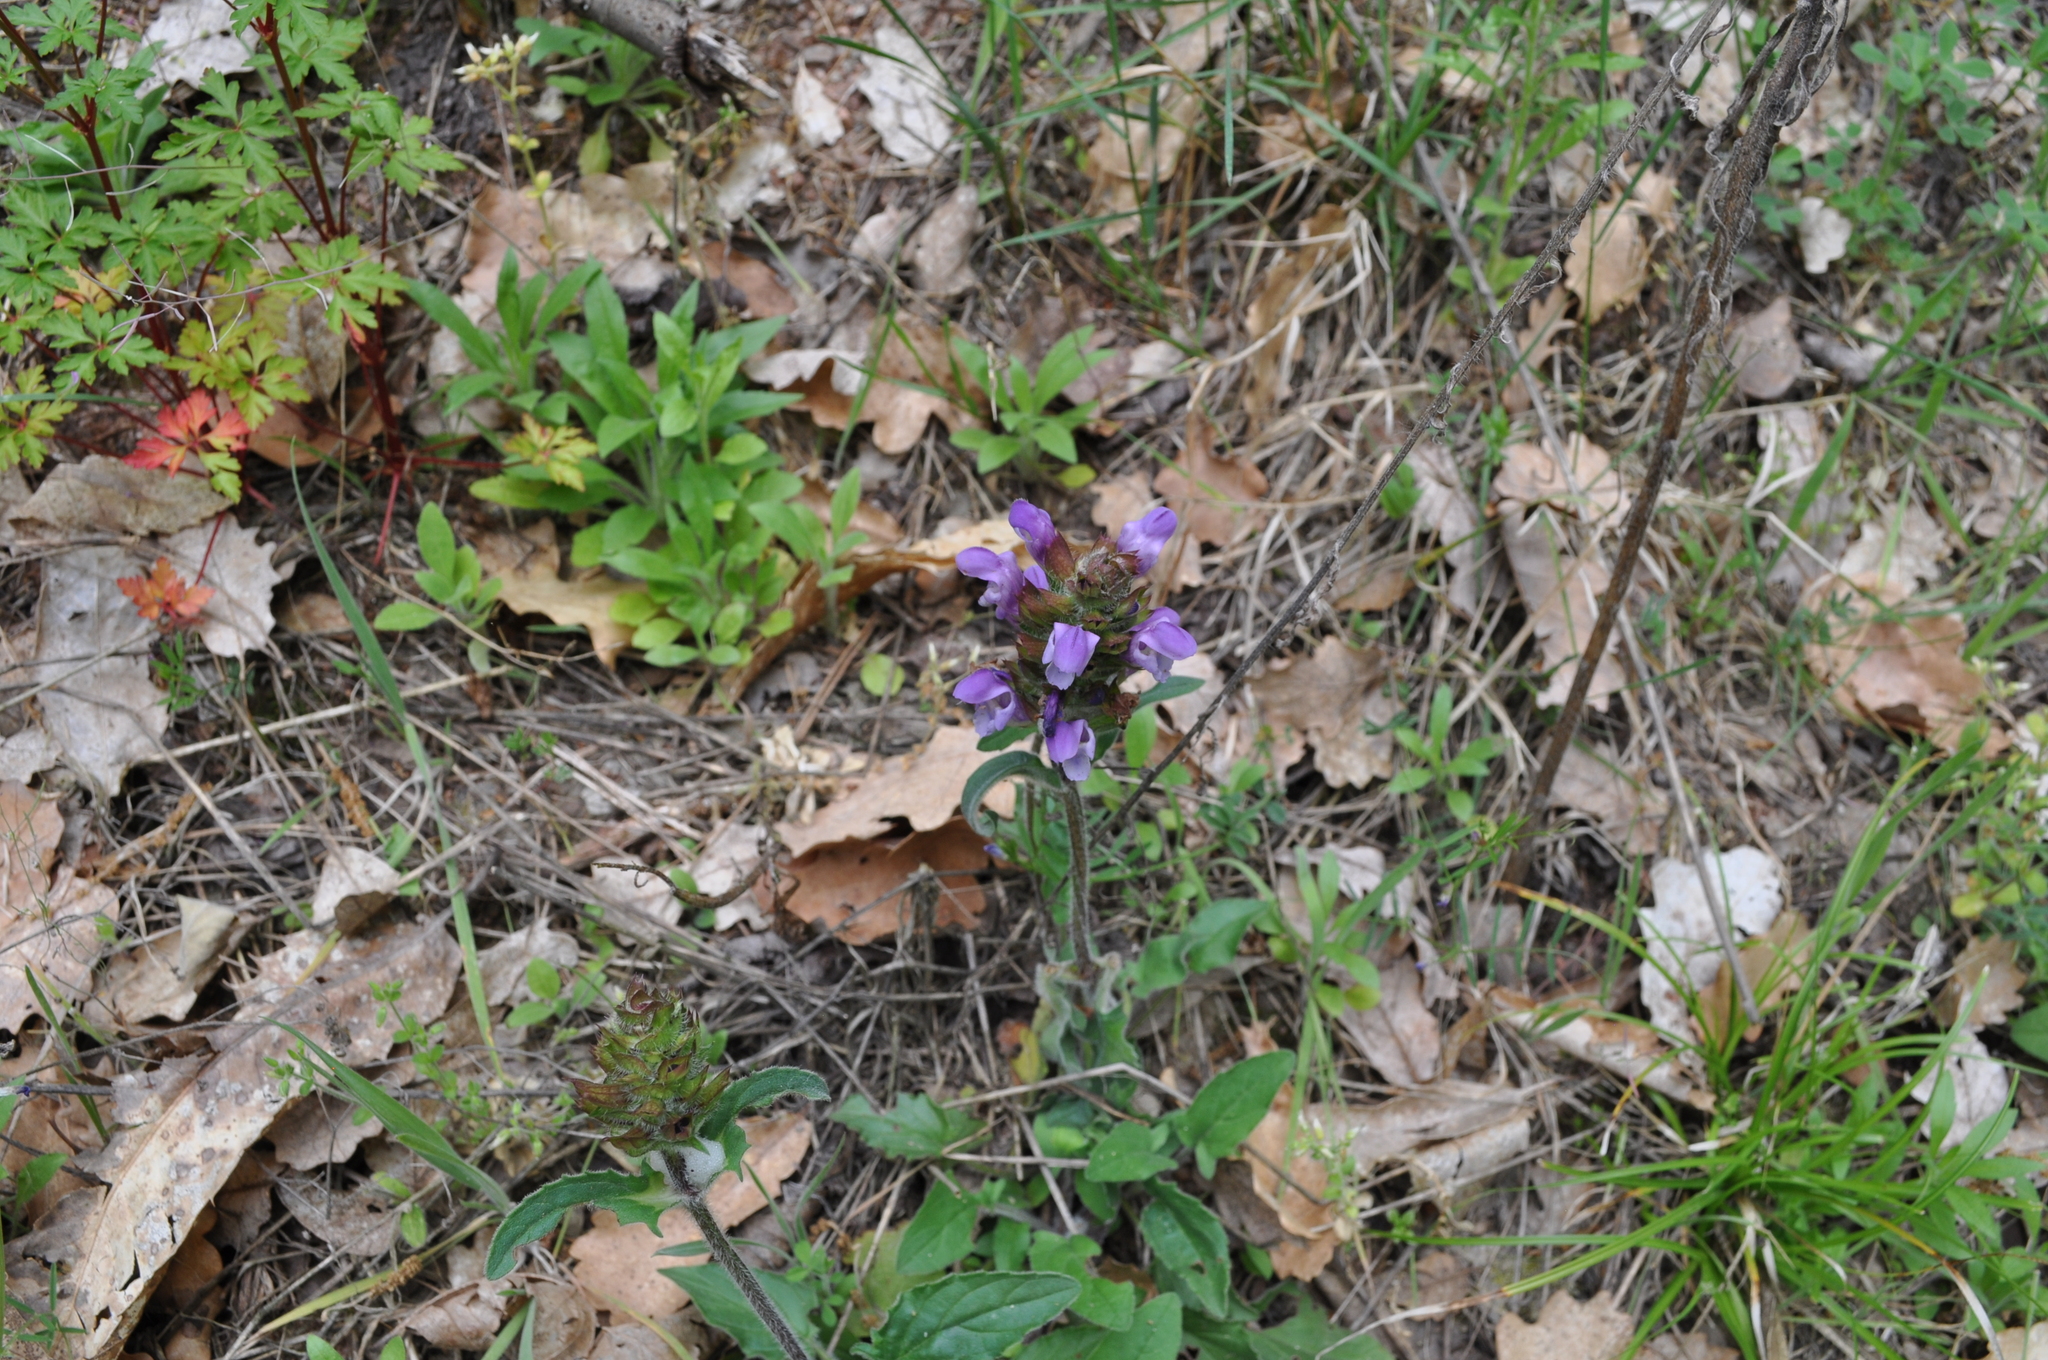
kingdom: Plantae
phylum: Tracheophyta
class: Magnoliopsida
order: Lamiales
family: Lamiaceae
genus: Prunella
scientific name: Prunella grandiflora
